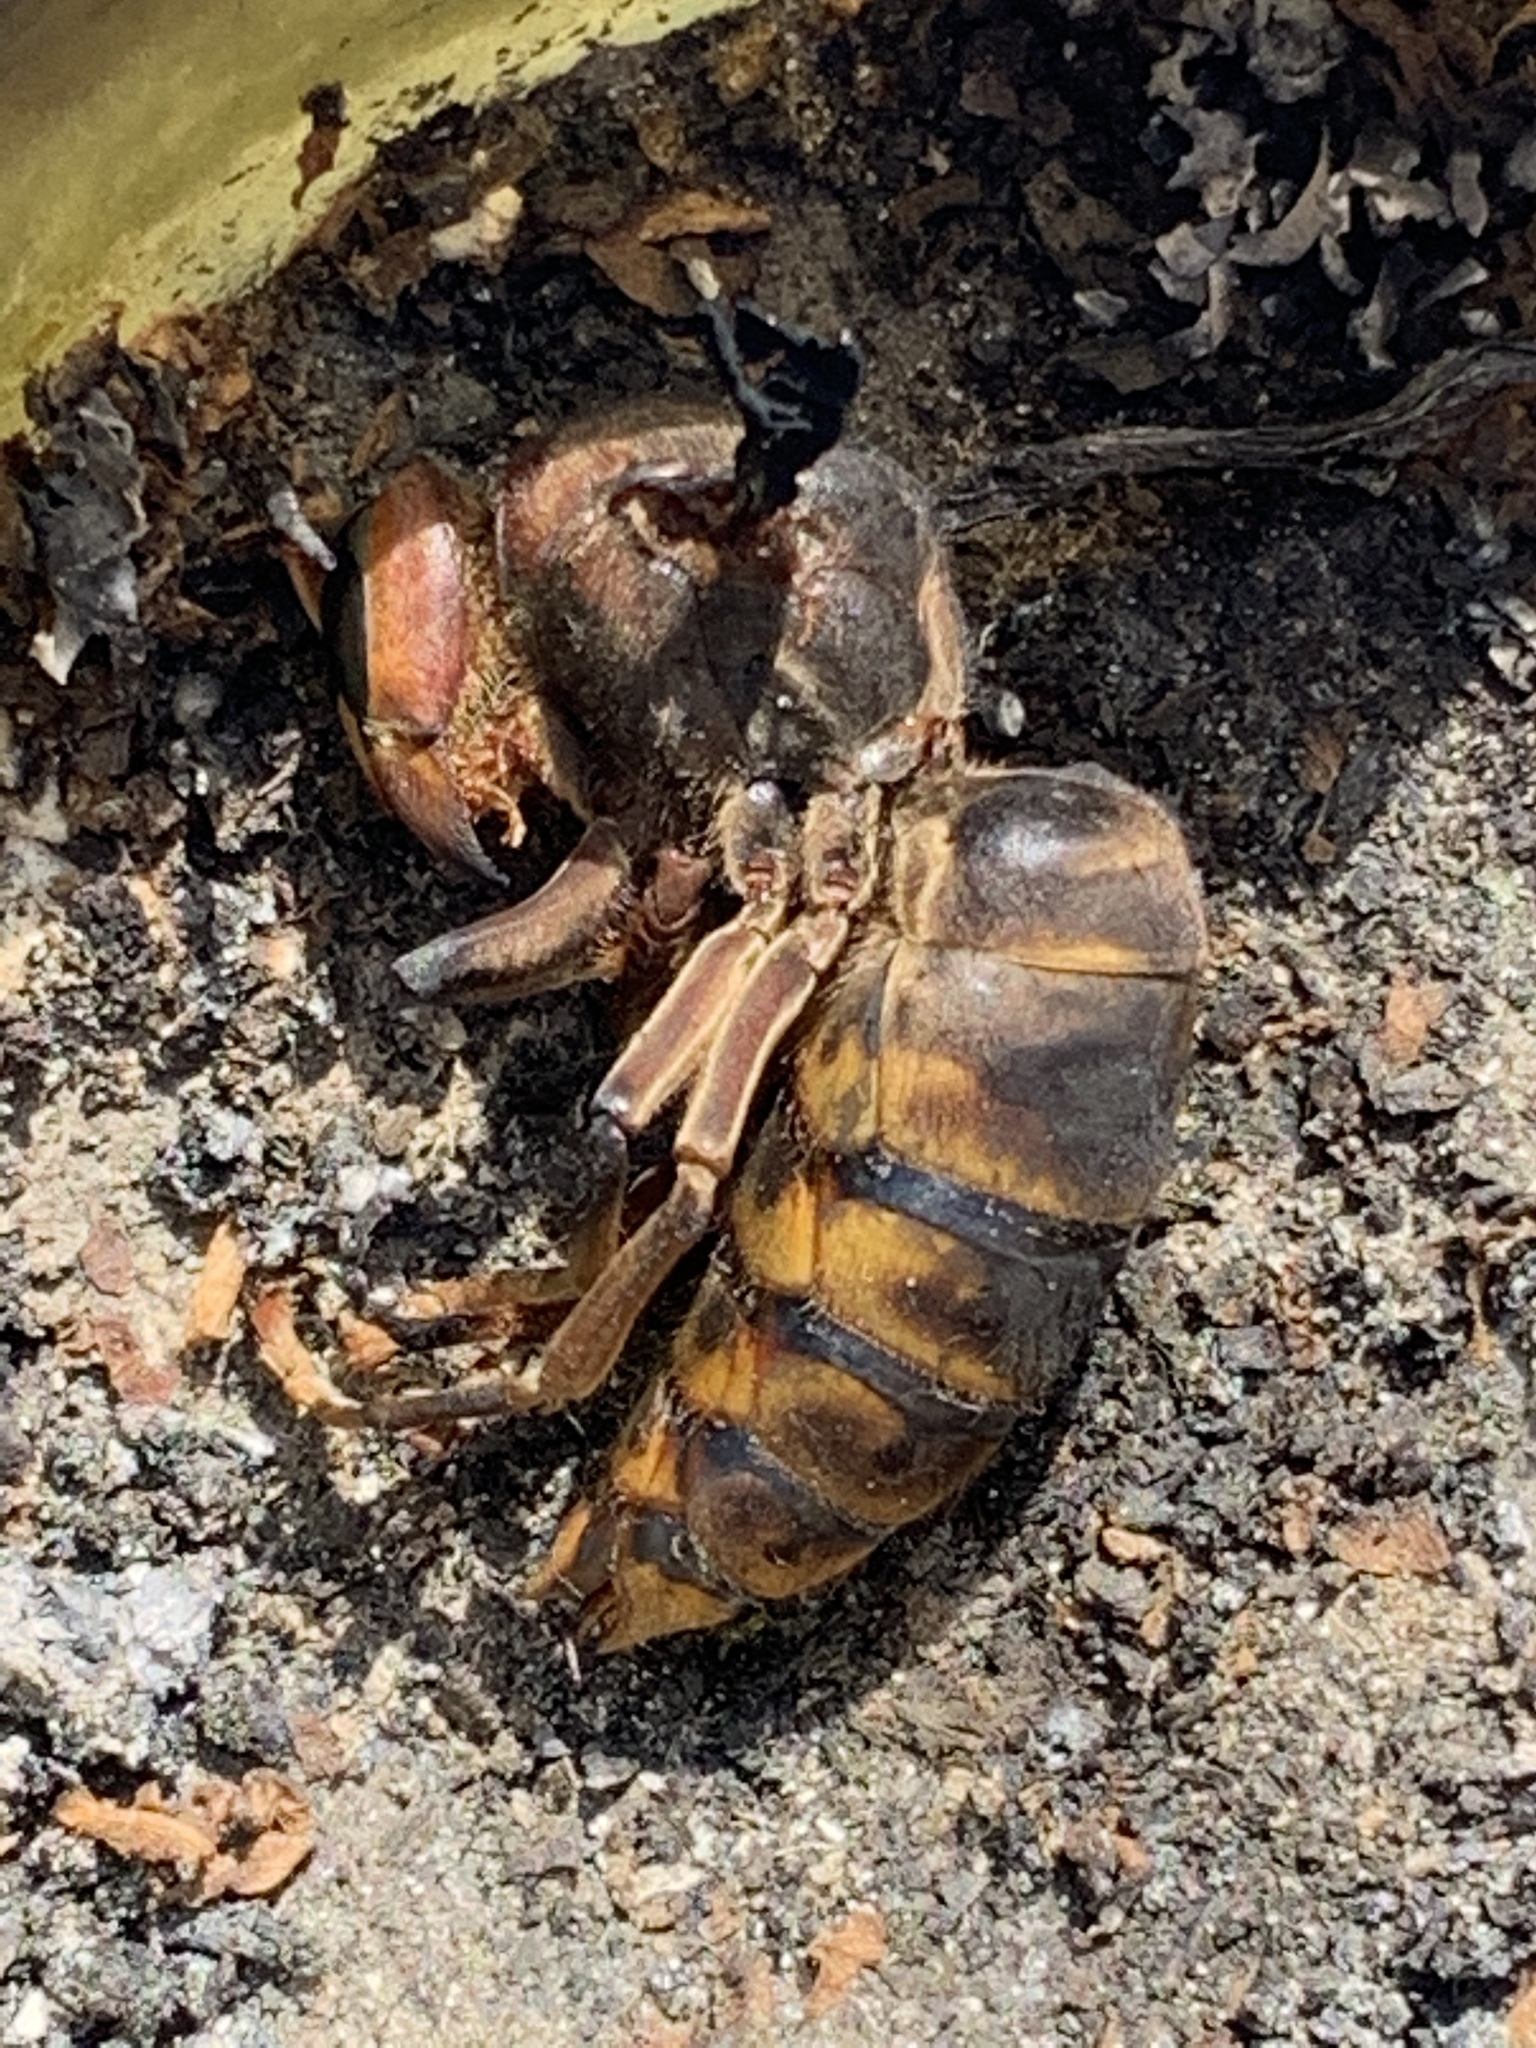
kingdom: Animalia
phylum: Arthropoda
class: Insecta
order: Hymenoptera
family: Vespidae
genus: Vespa
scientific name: Vespa crabro
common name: Hornet
